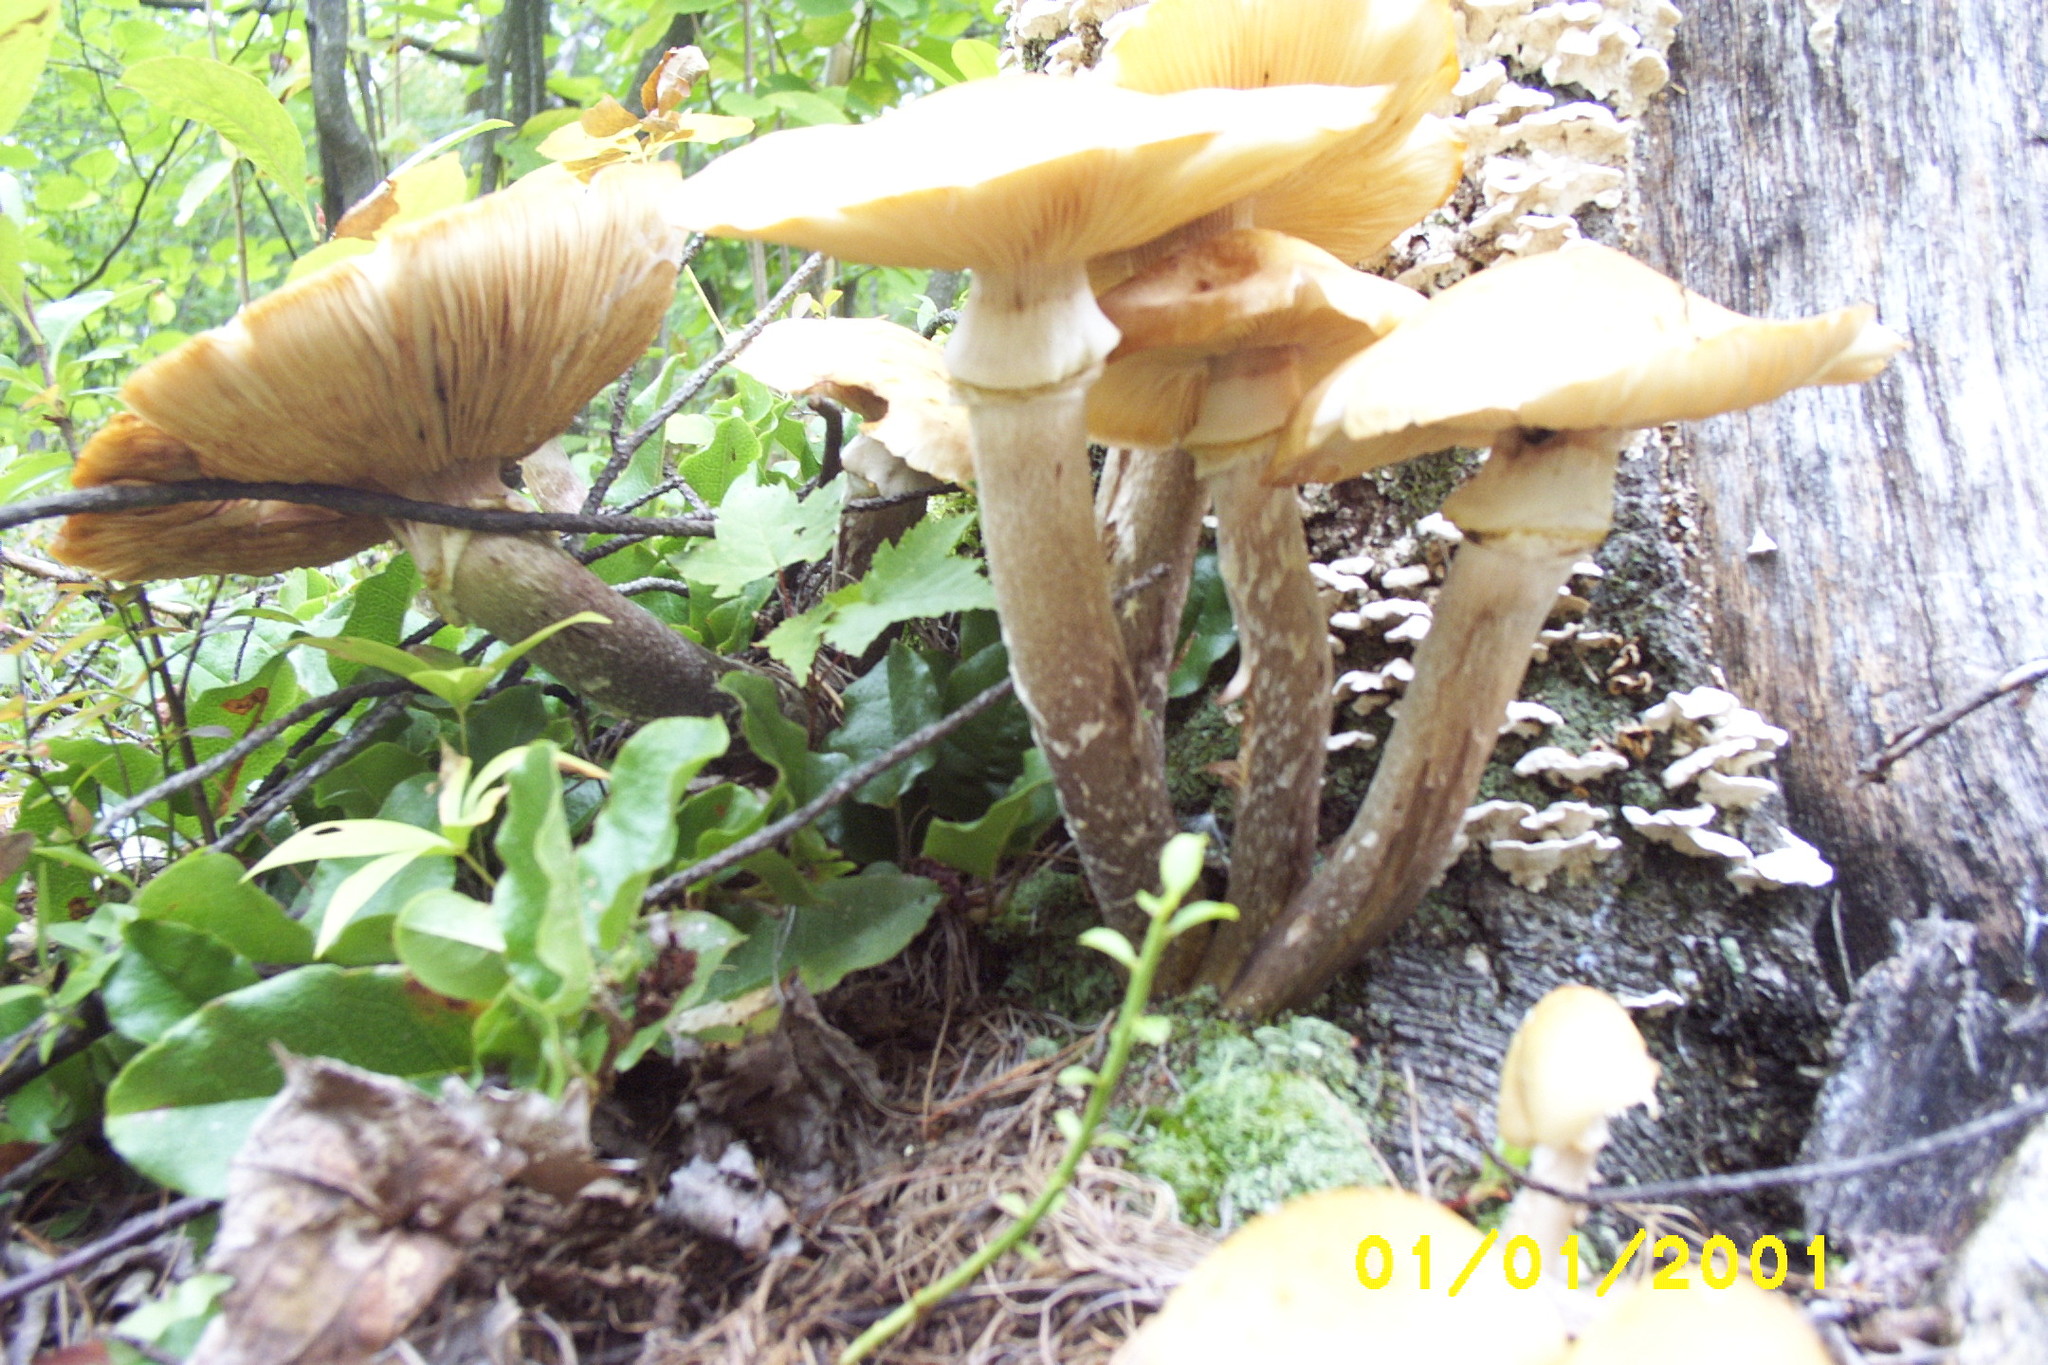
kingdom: Fungi
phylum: Basidiomycota
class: Agaricomycetes
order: Agaricales
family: Physalacriaceae
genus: Armillaria
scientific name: Armillaria mellea
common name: Honey fungus
